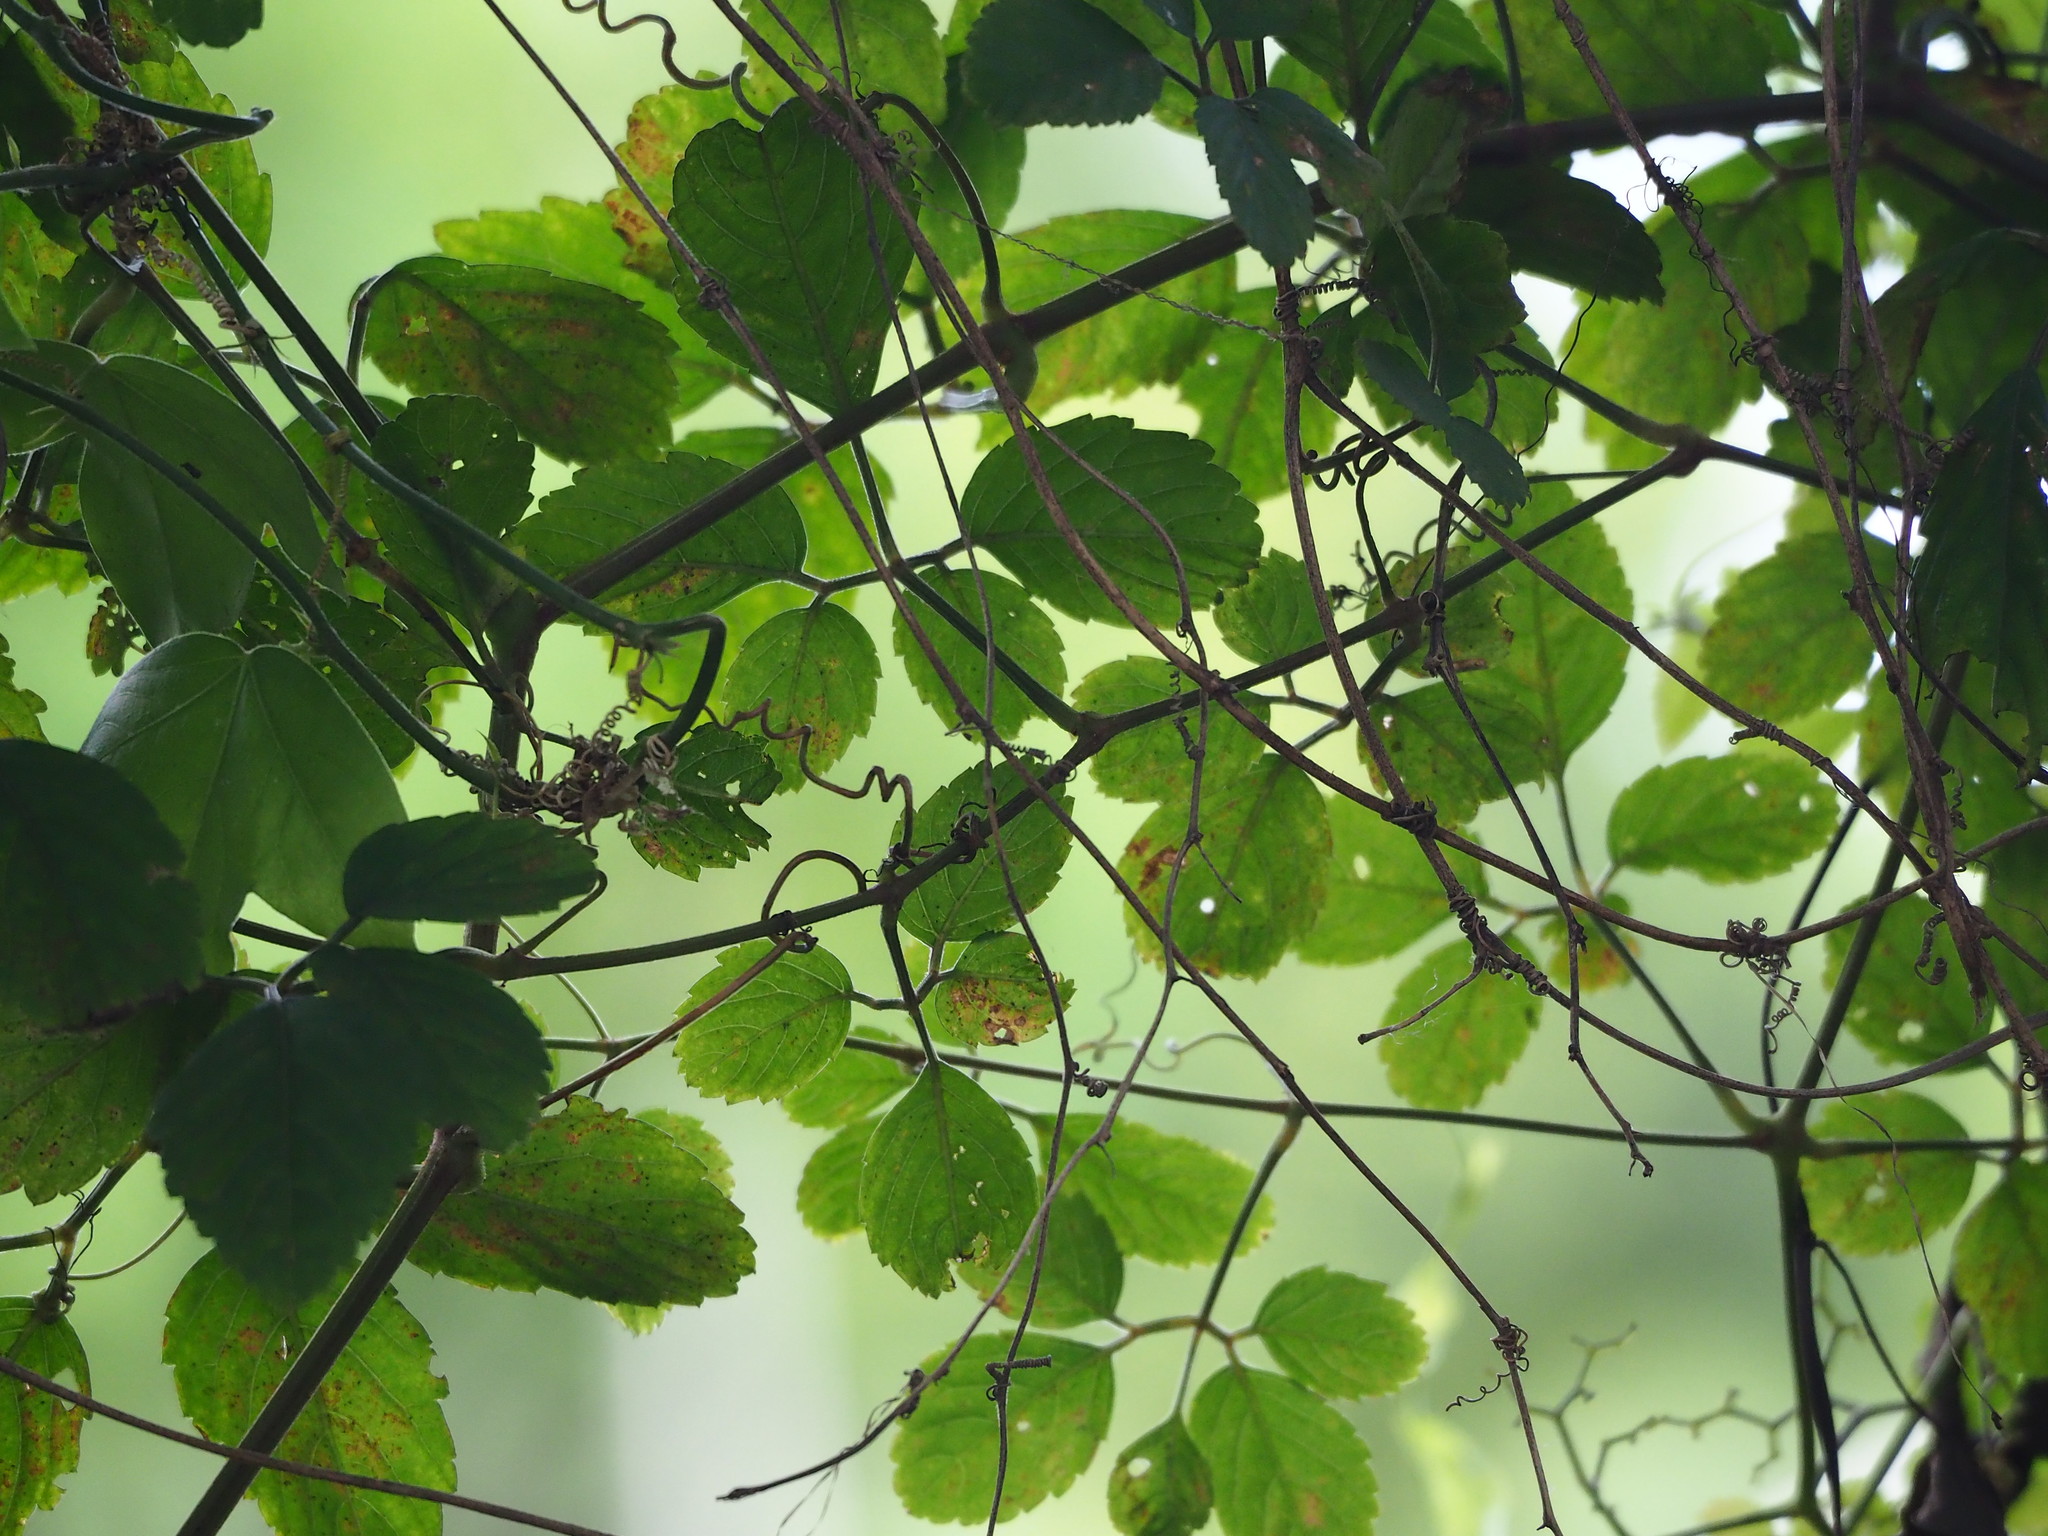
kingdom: Plantae
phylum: Tracheophyta
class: Magnoliopsida
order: Vitales
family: Vitaceae
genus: Causonis
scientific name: Causonis japonica
